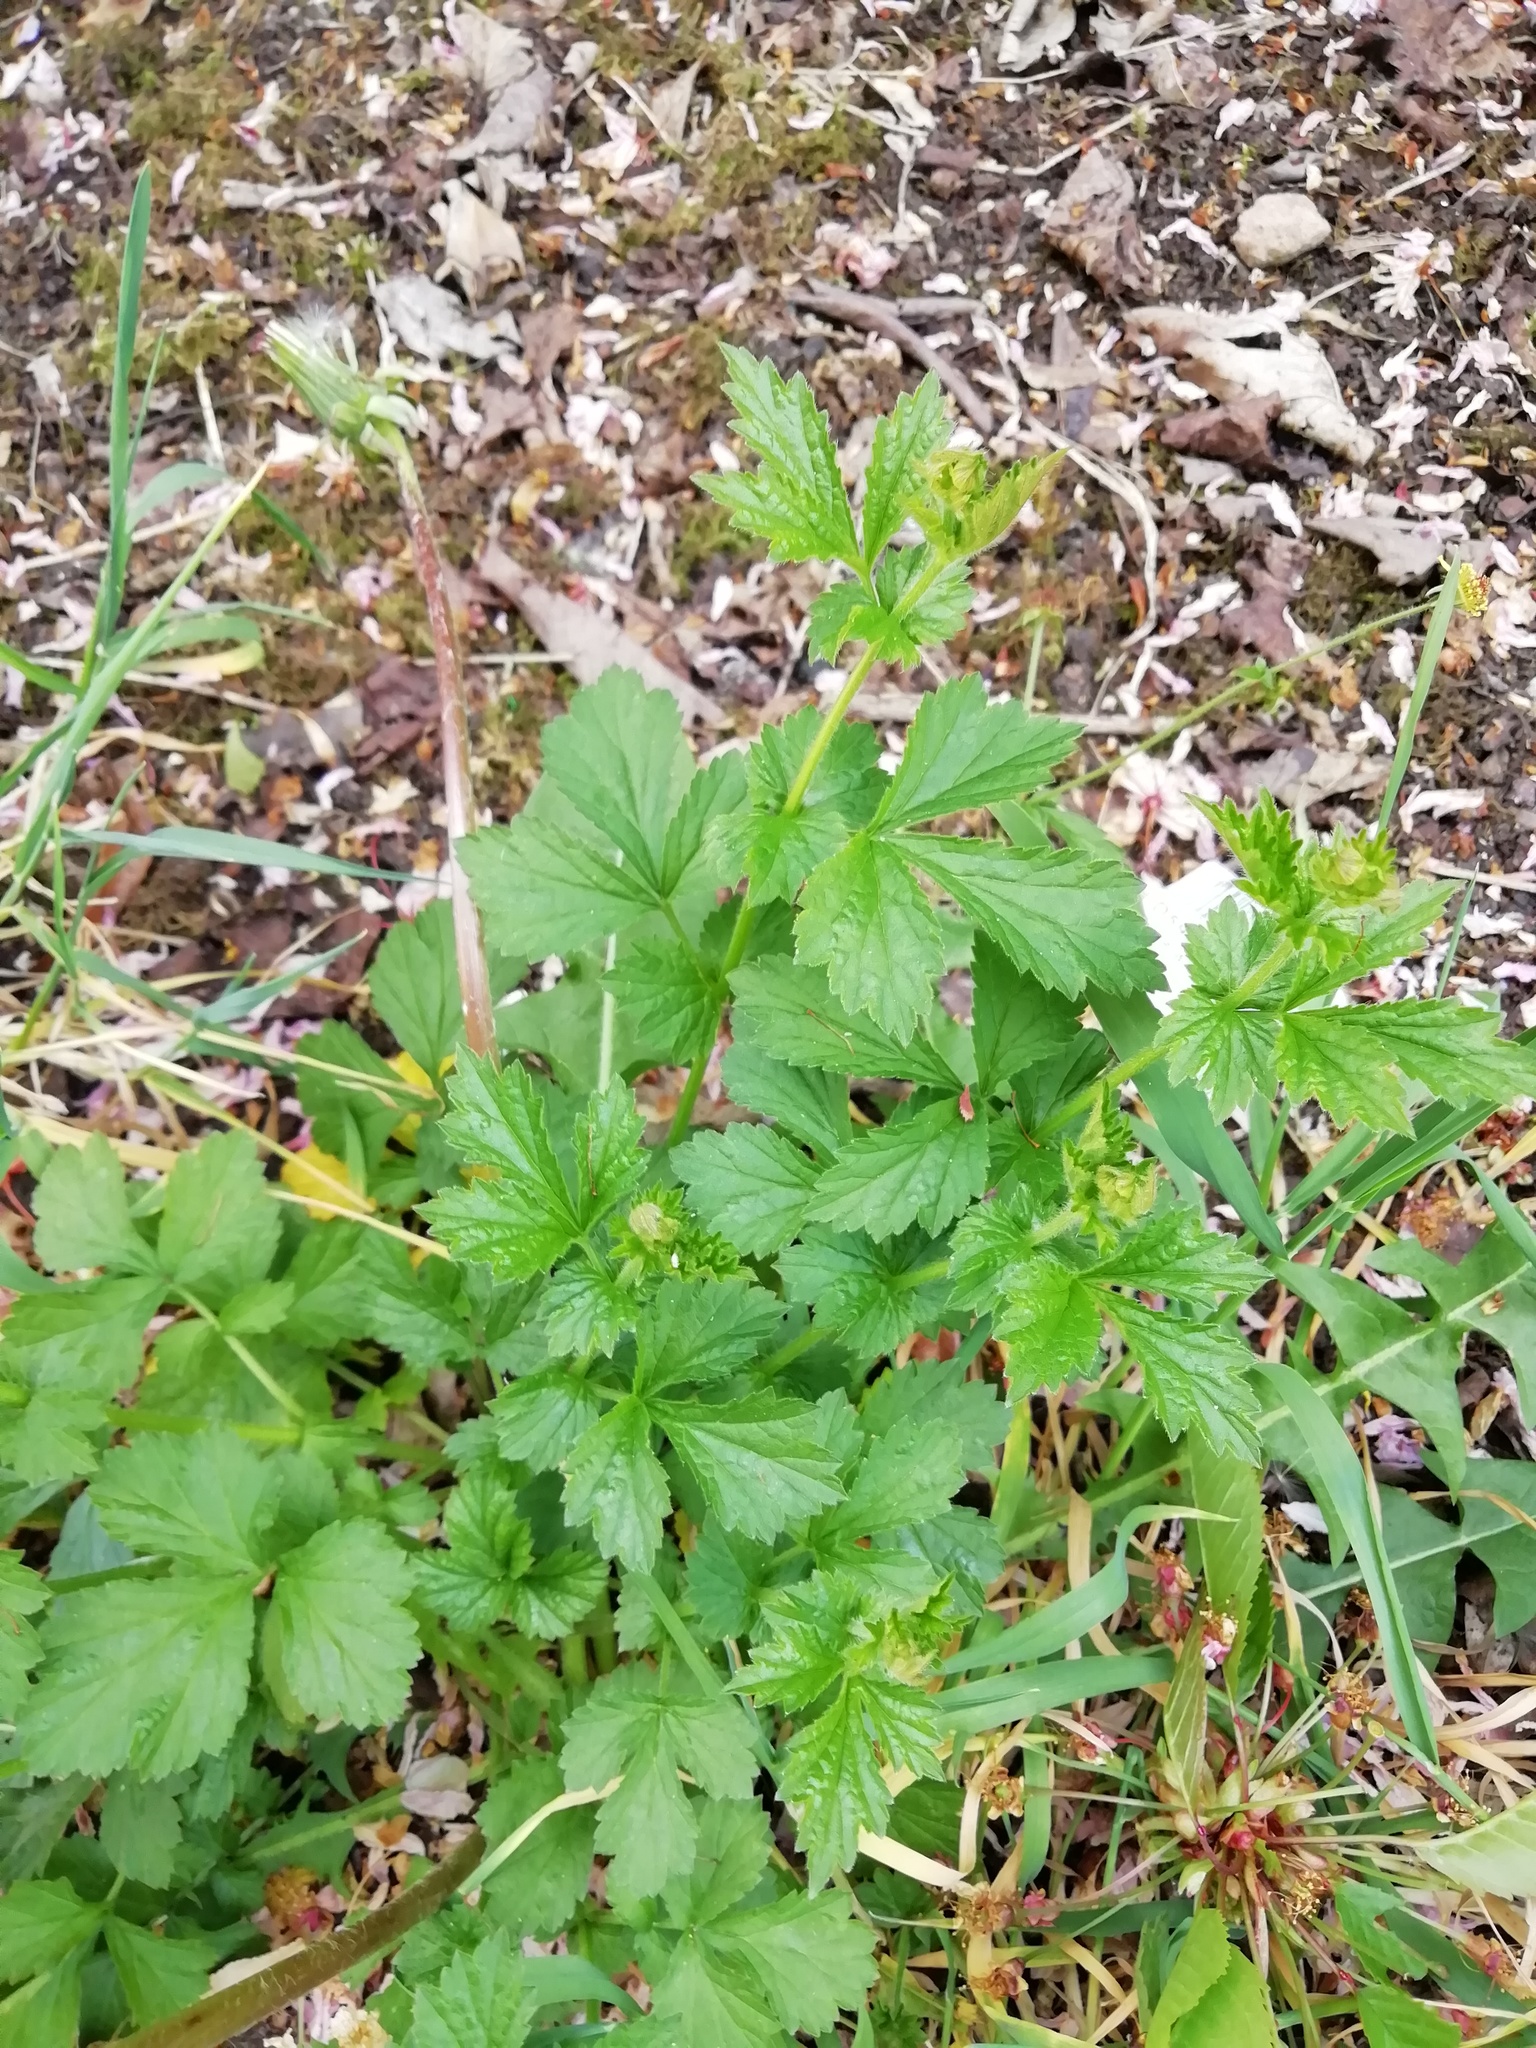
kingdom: Plantae
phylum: Tracheophyta
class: Magnoliopsida
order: Rosales
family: Rosaceae
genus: Geum
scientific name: Geum urbanum
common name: Wood avens
